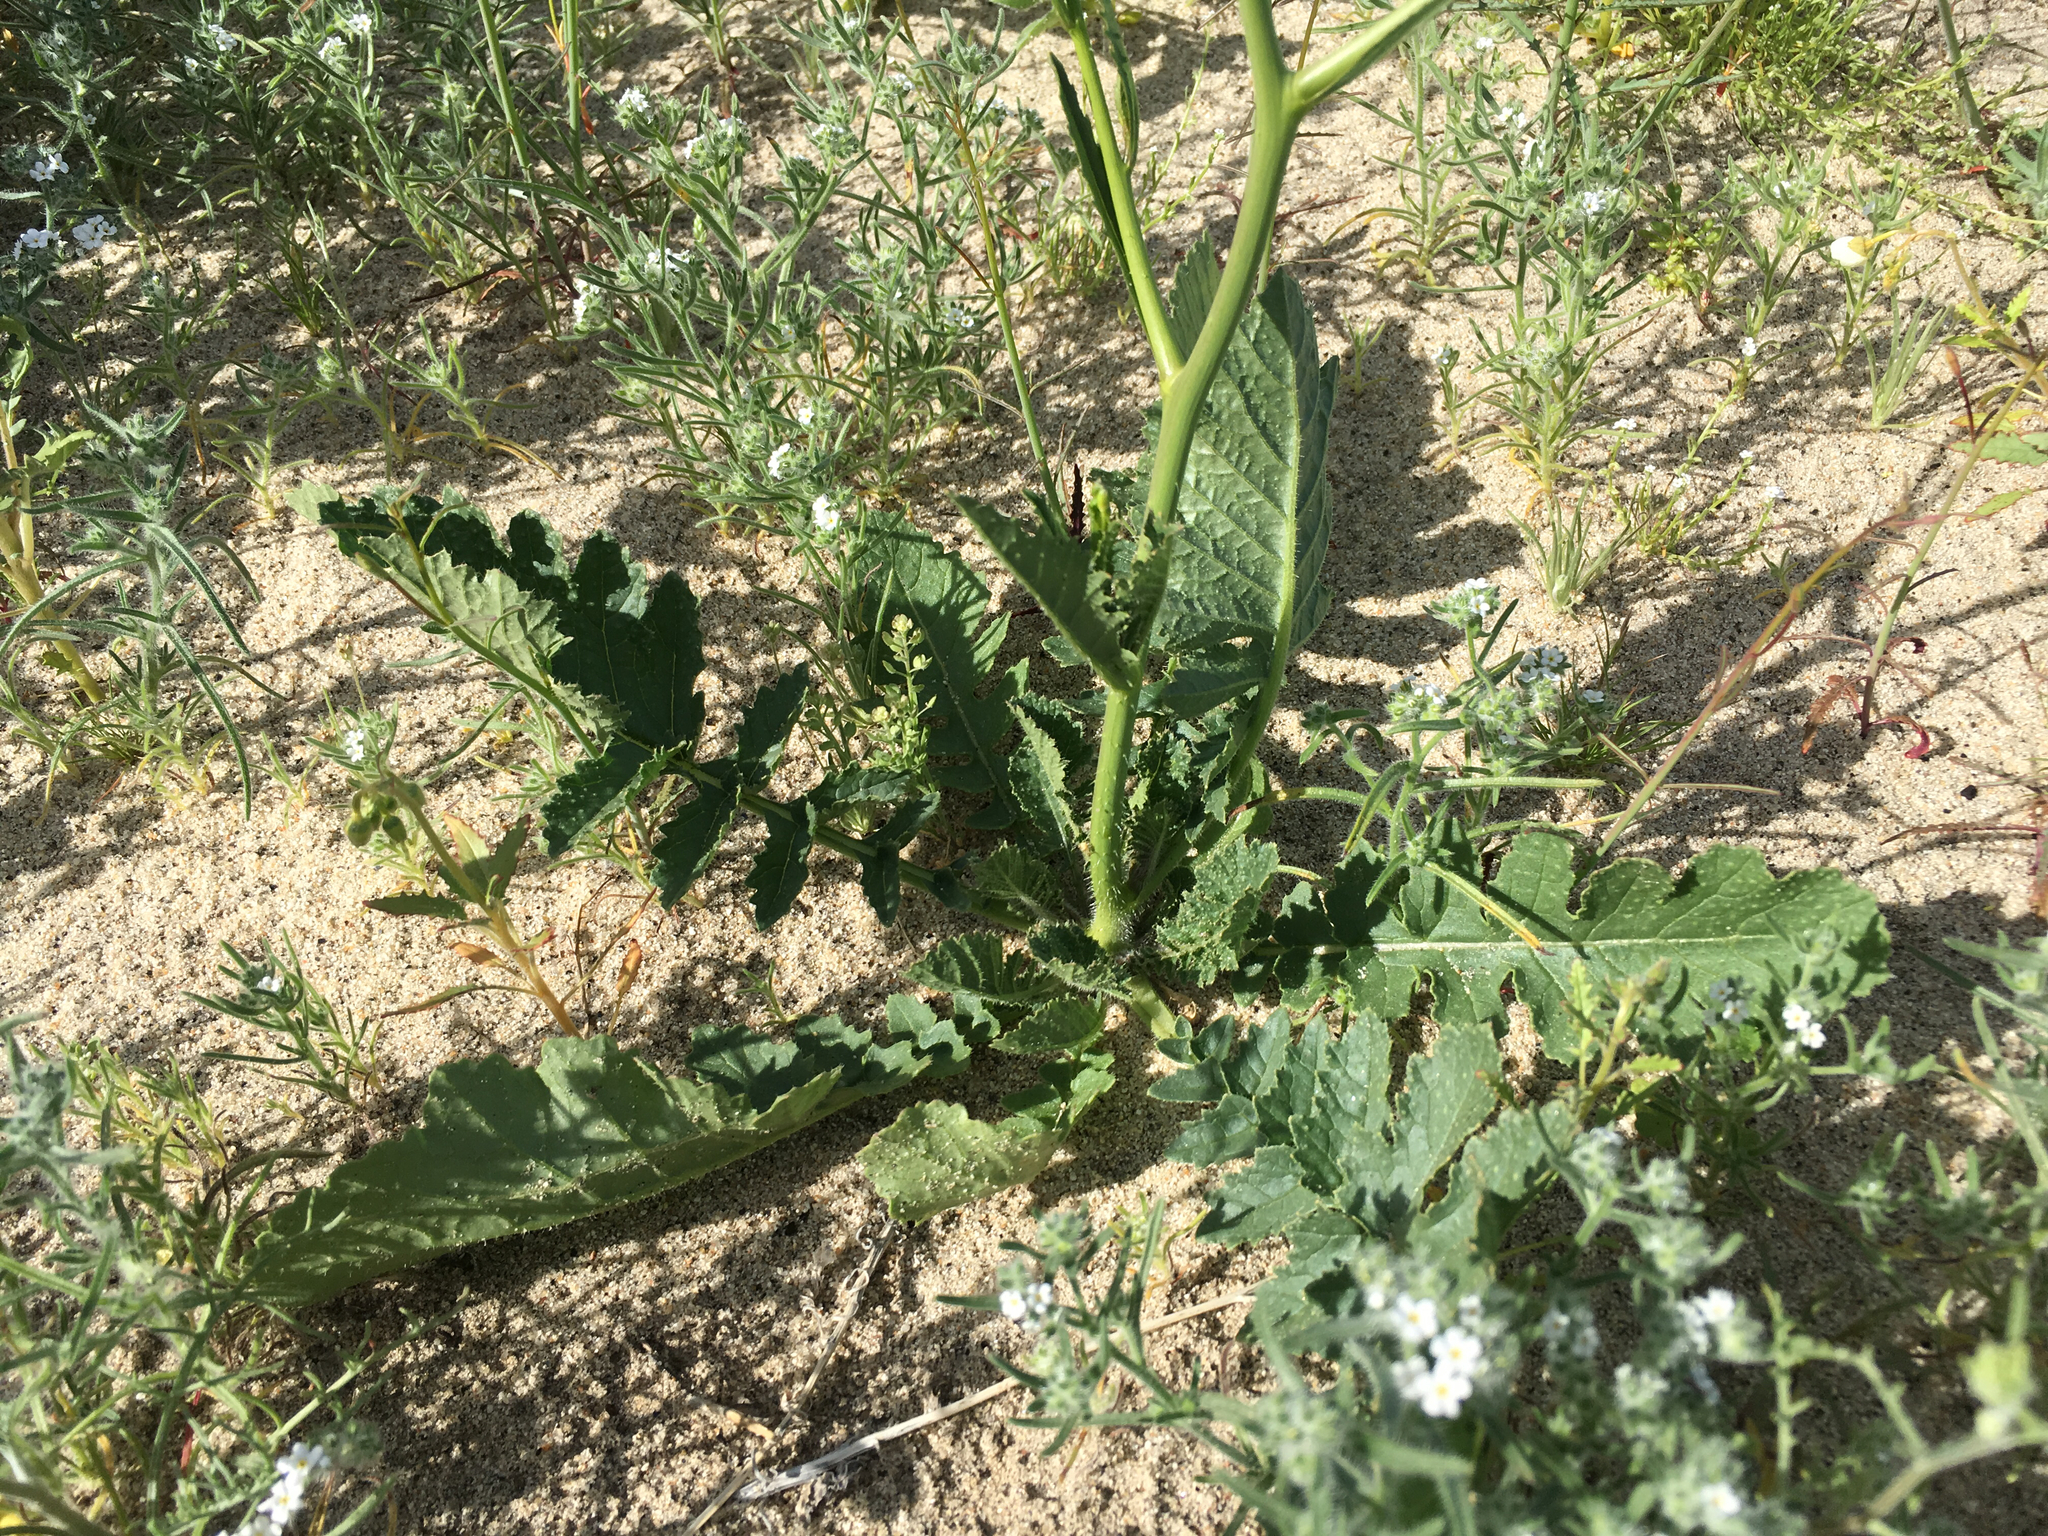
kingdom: Plantae
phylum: Tracheophyta
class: Magnoliopsida
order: Brassicales
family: Brassicaceae
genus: Brassica
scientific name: Brassica tournefortii
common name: Pale cabbage
